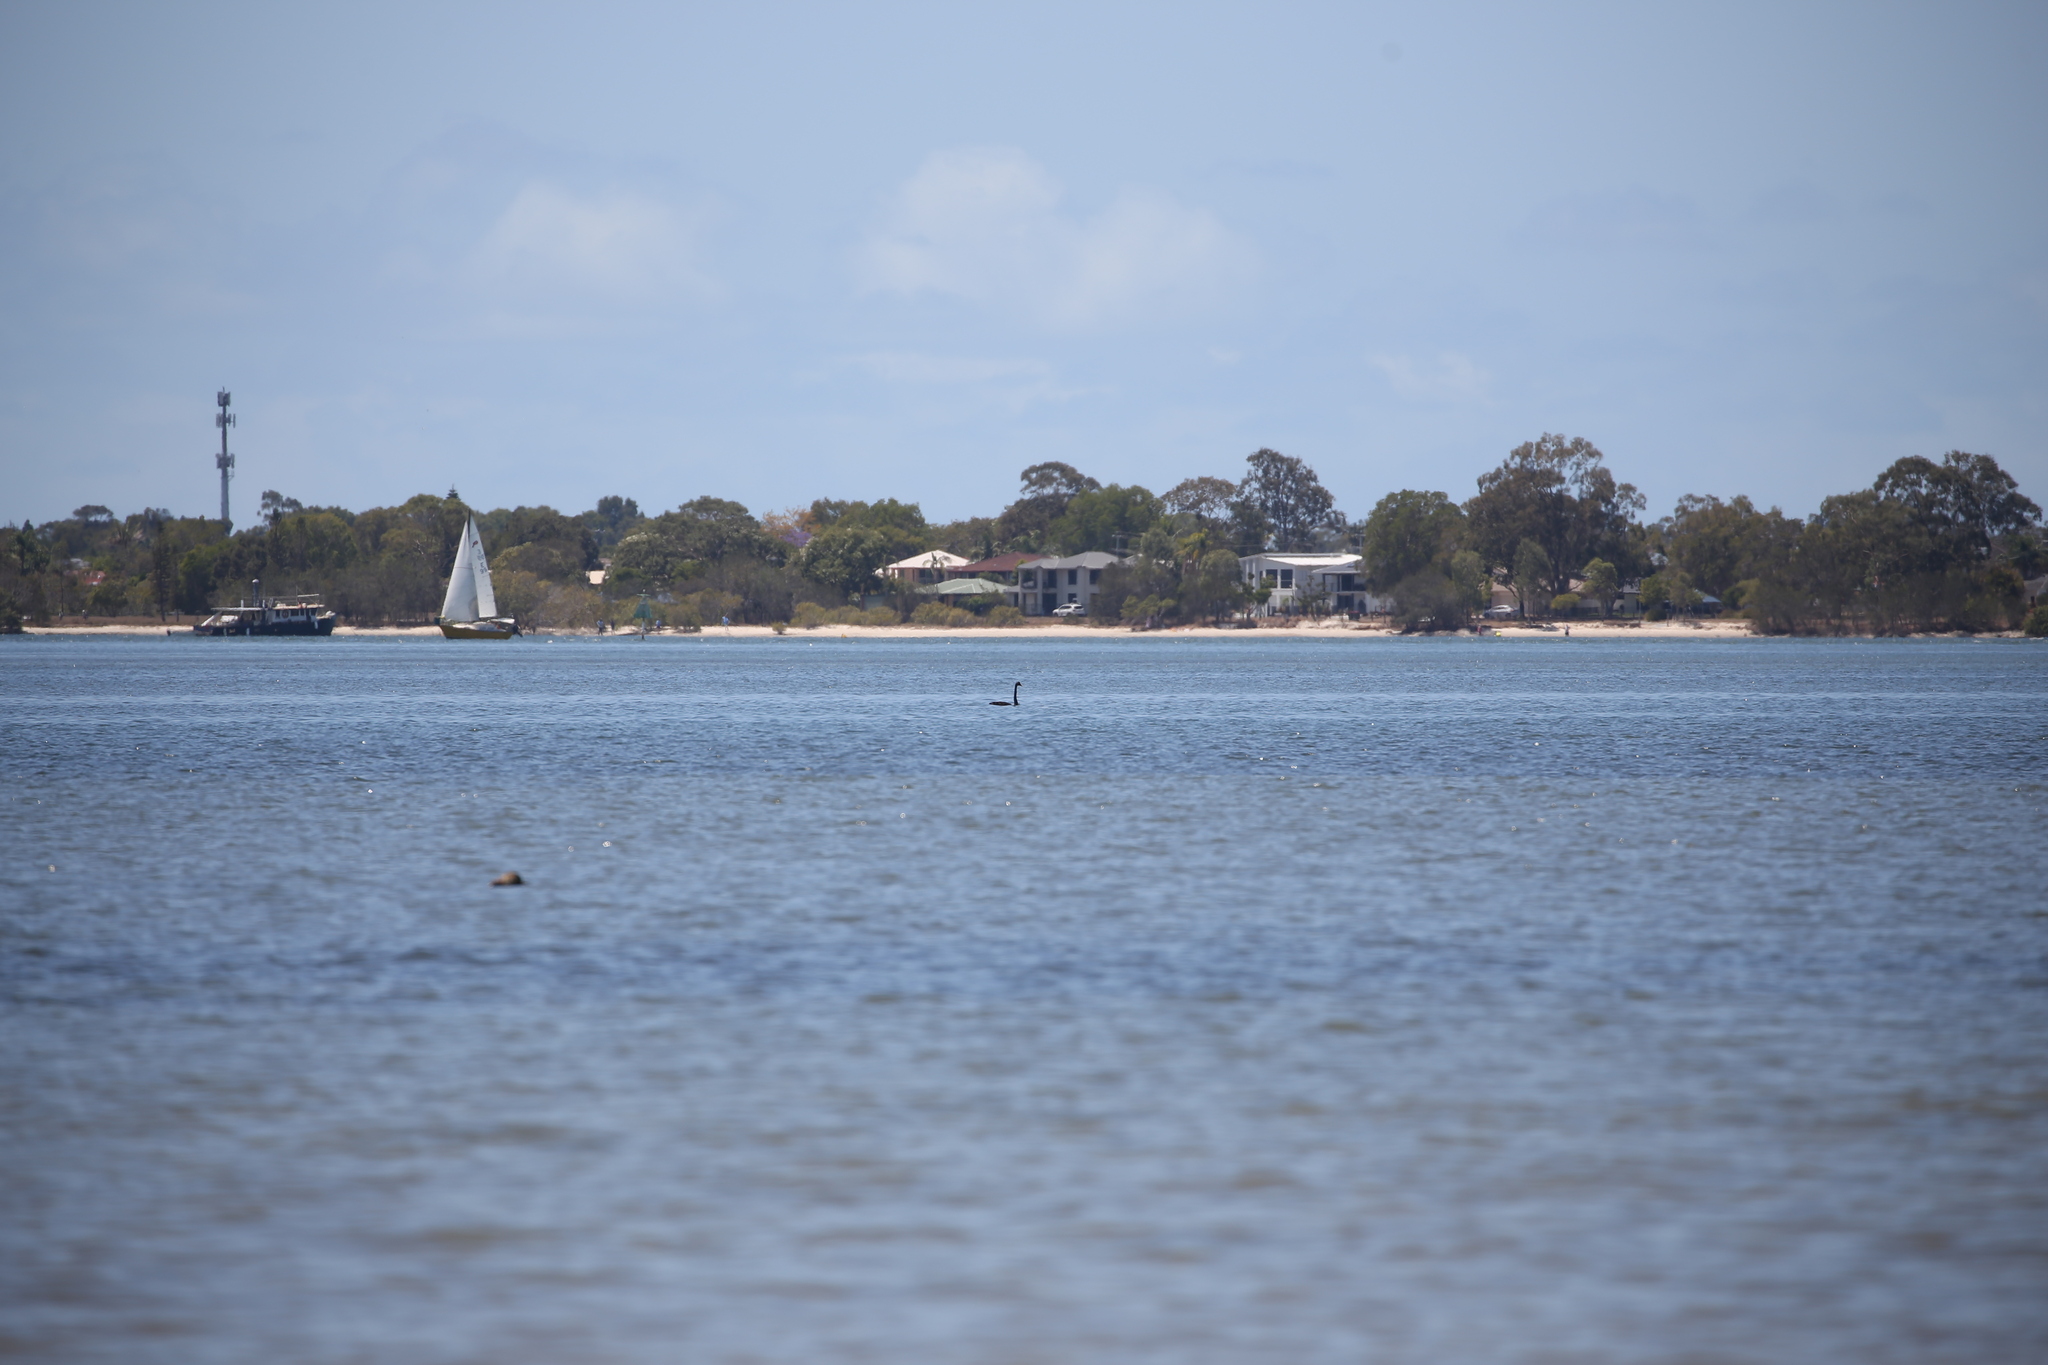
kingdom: Animalia
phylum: Chordata
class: Aves
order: Anseriformes
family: Anatidae
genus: Cygnus
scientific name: Cygnus atratus
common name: Black swan
